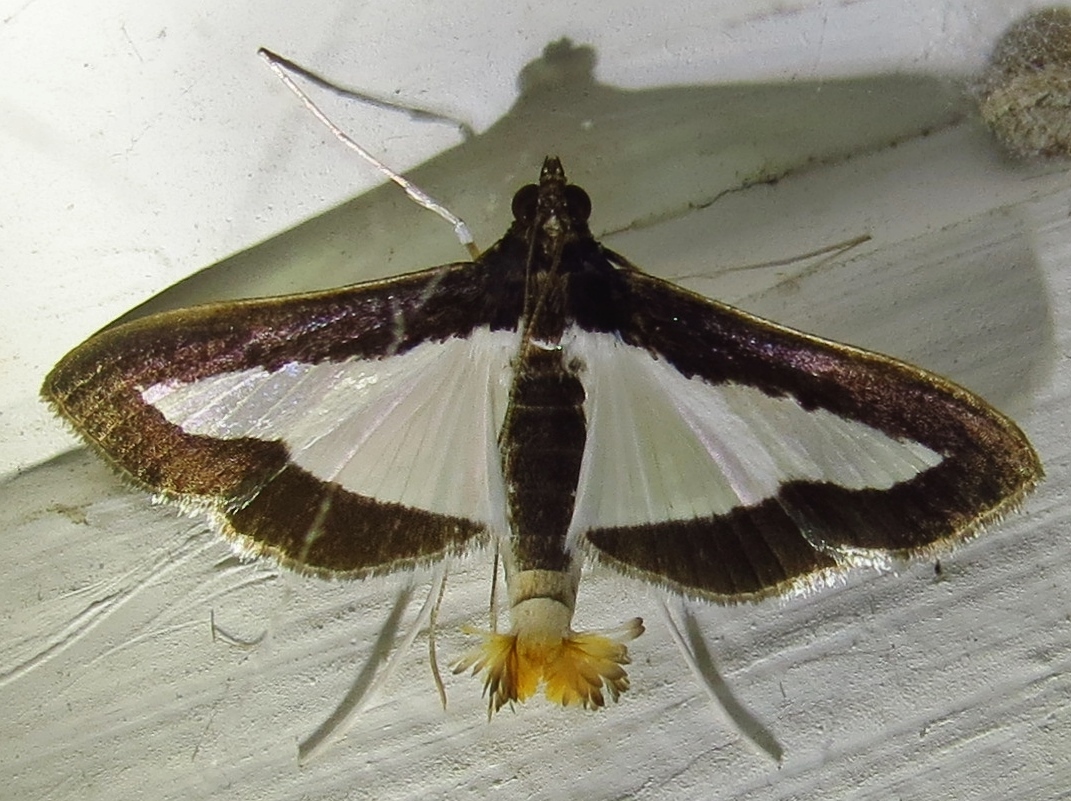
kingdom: Animalia
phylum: Arthropoda
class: Insecta
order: Lepidoptera
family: Crambidae
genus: Cryptographis
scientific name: Cryptographis infimalis
